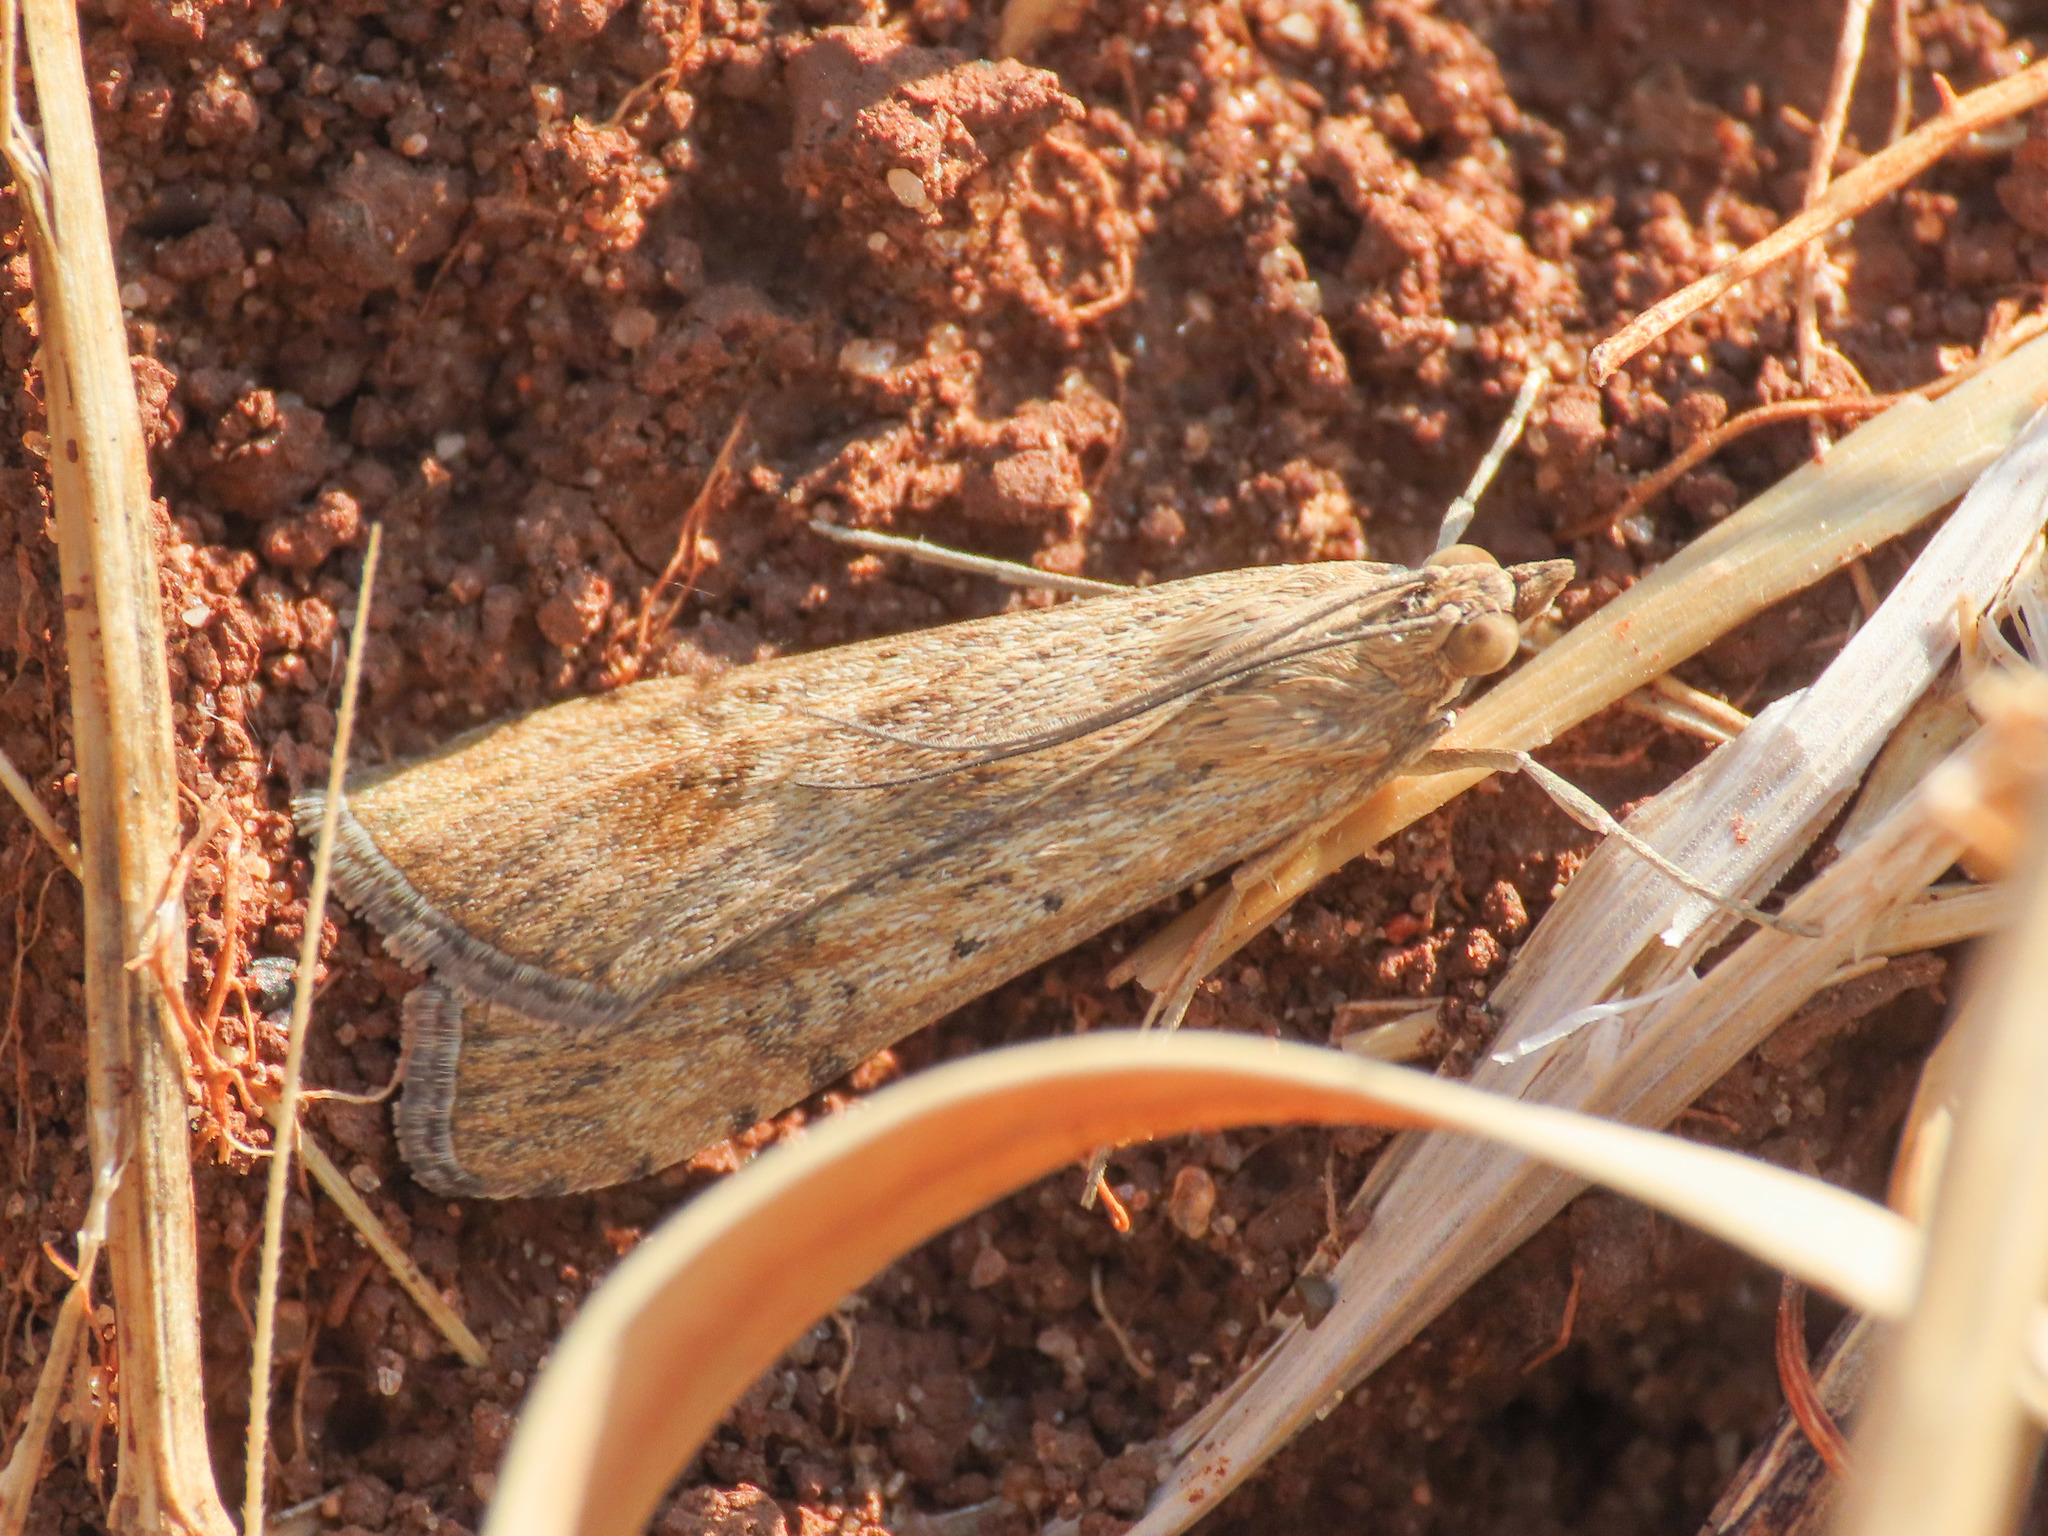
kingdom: Animalia
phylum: Arthropoda
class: Insecta
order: Lepidoptera
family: Crambidae
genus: Nomophila
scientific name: Nomophila noctuella
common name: Rush veneer
